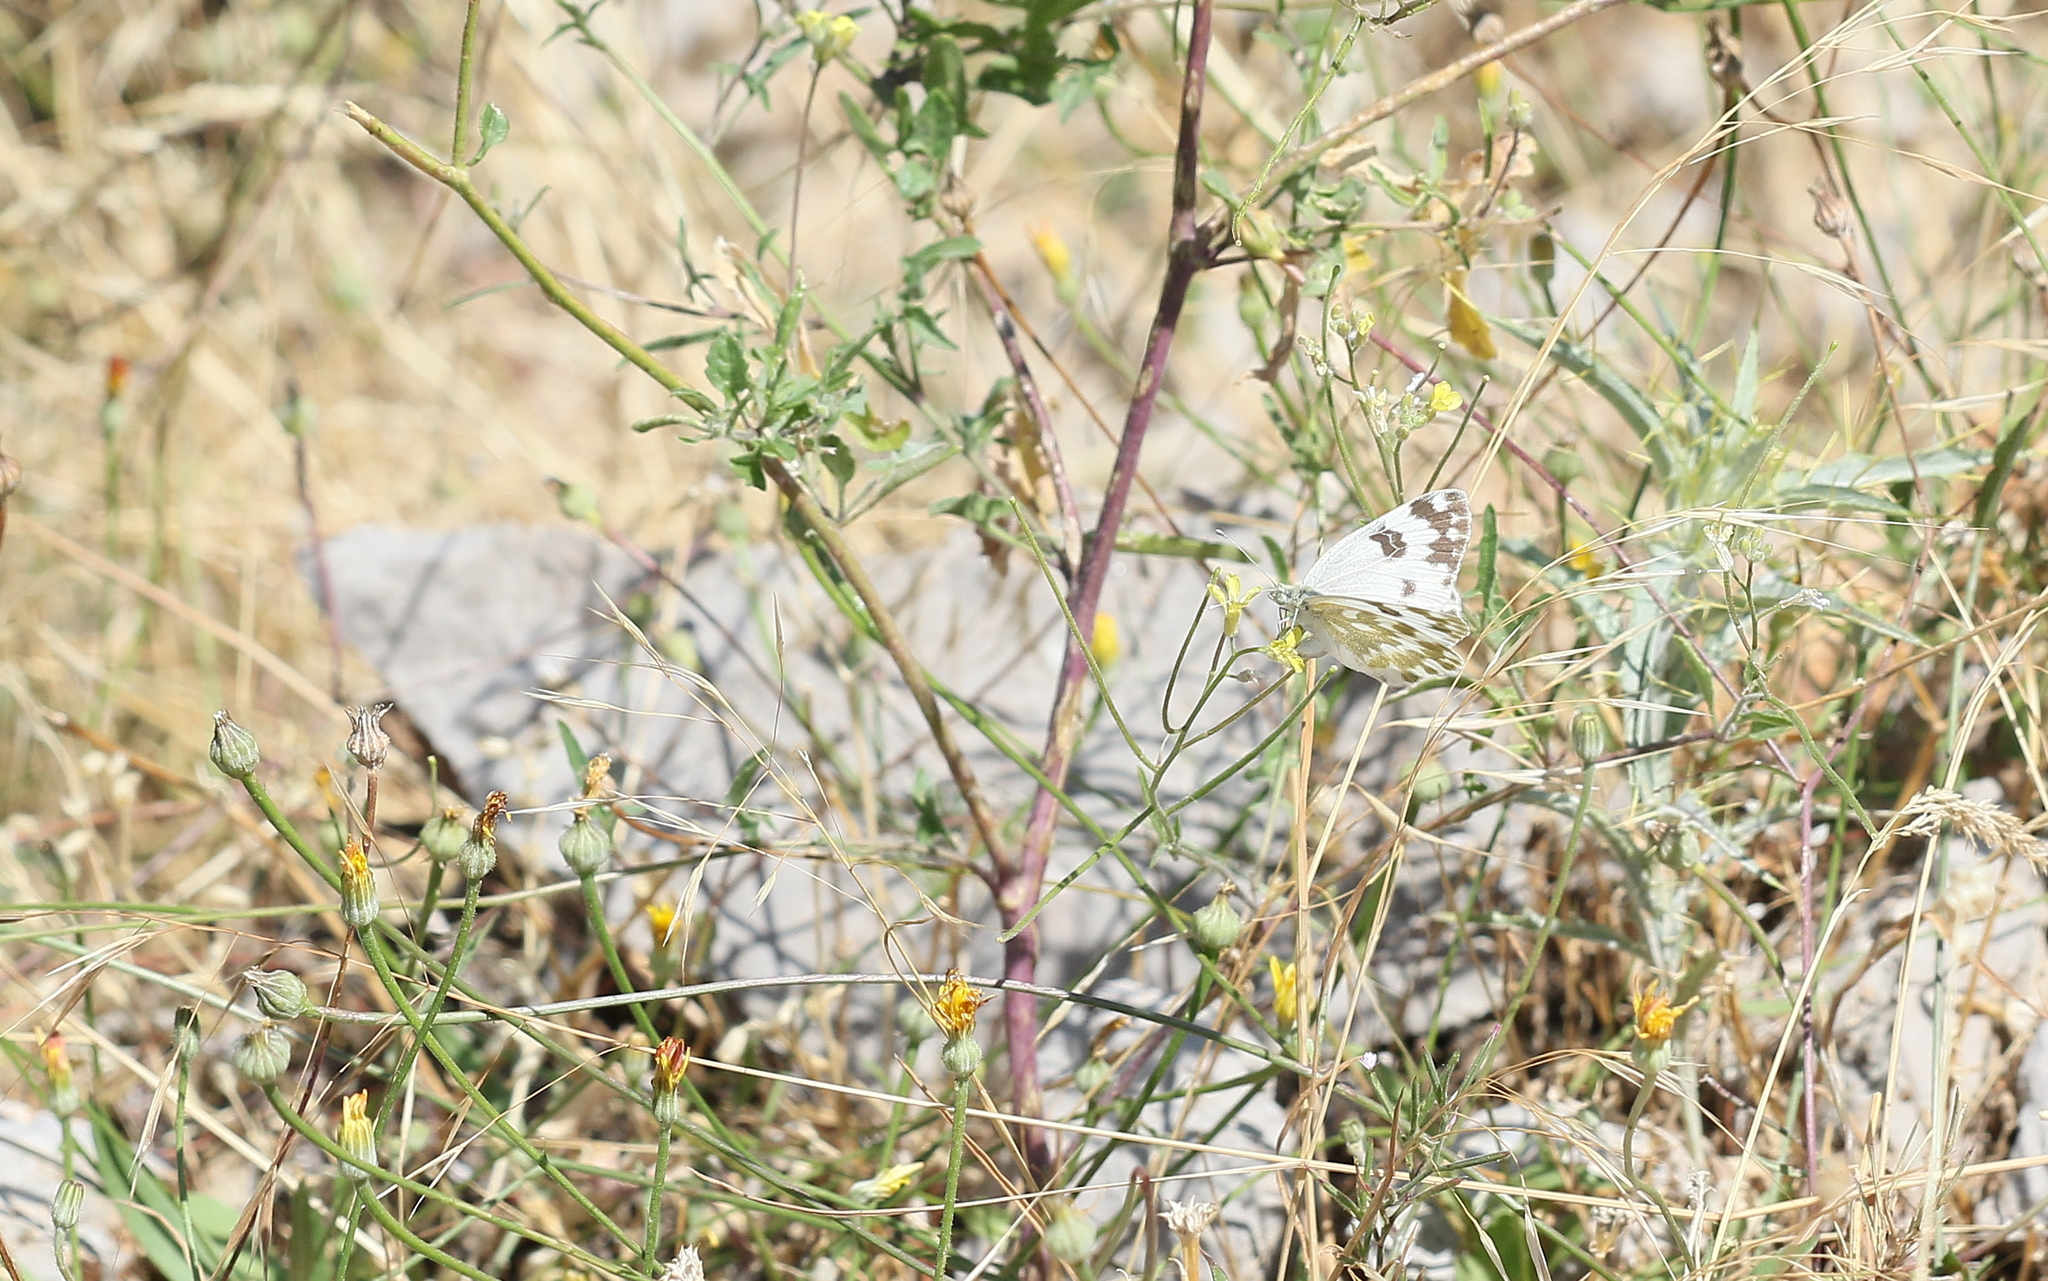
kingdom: Animalia
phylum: Arthropoda
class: Insecta
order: Lepidoptera
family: Pieridae
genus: Pontia
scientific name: Pontia edusa
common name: Eastern bath white
